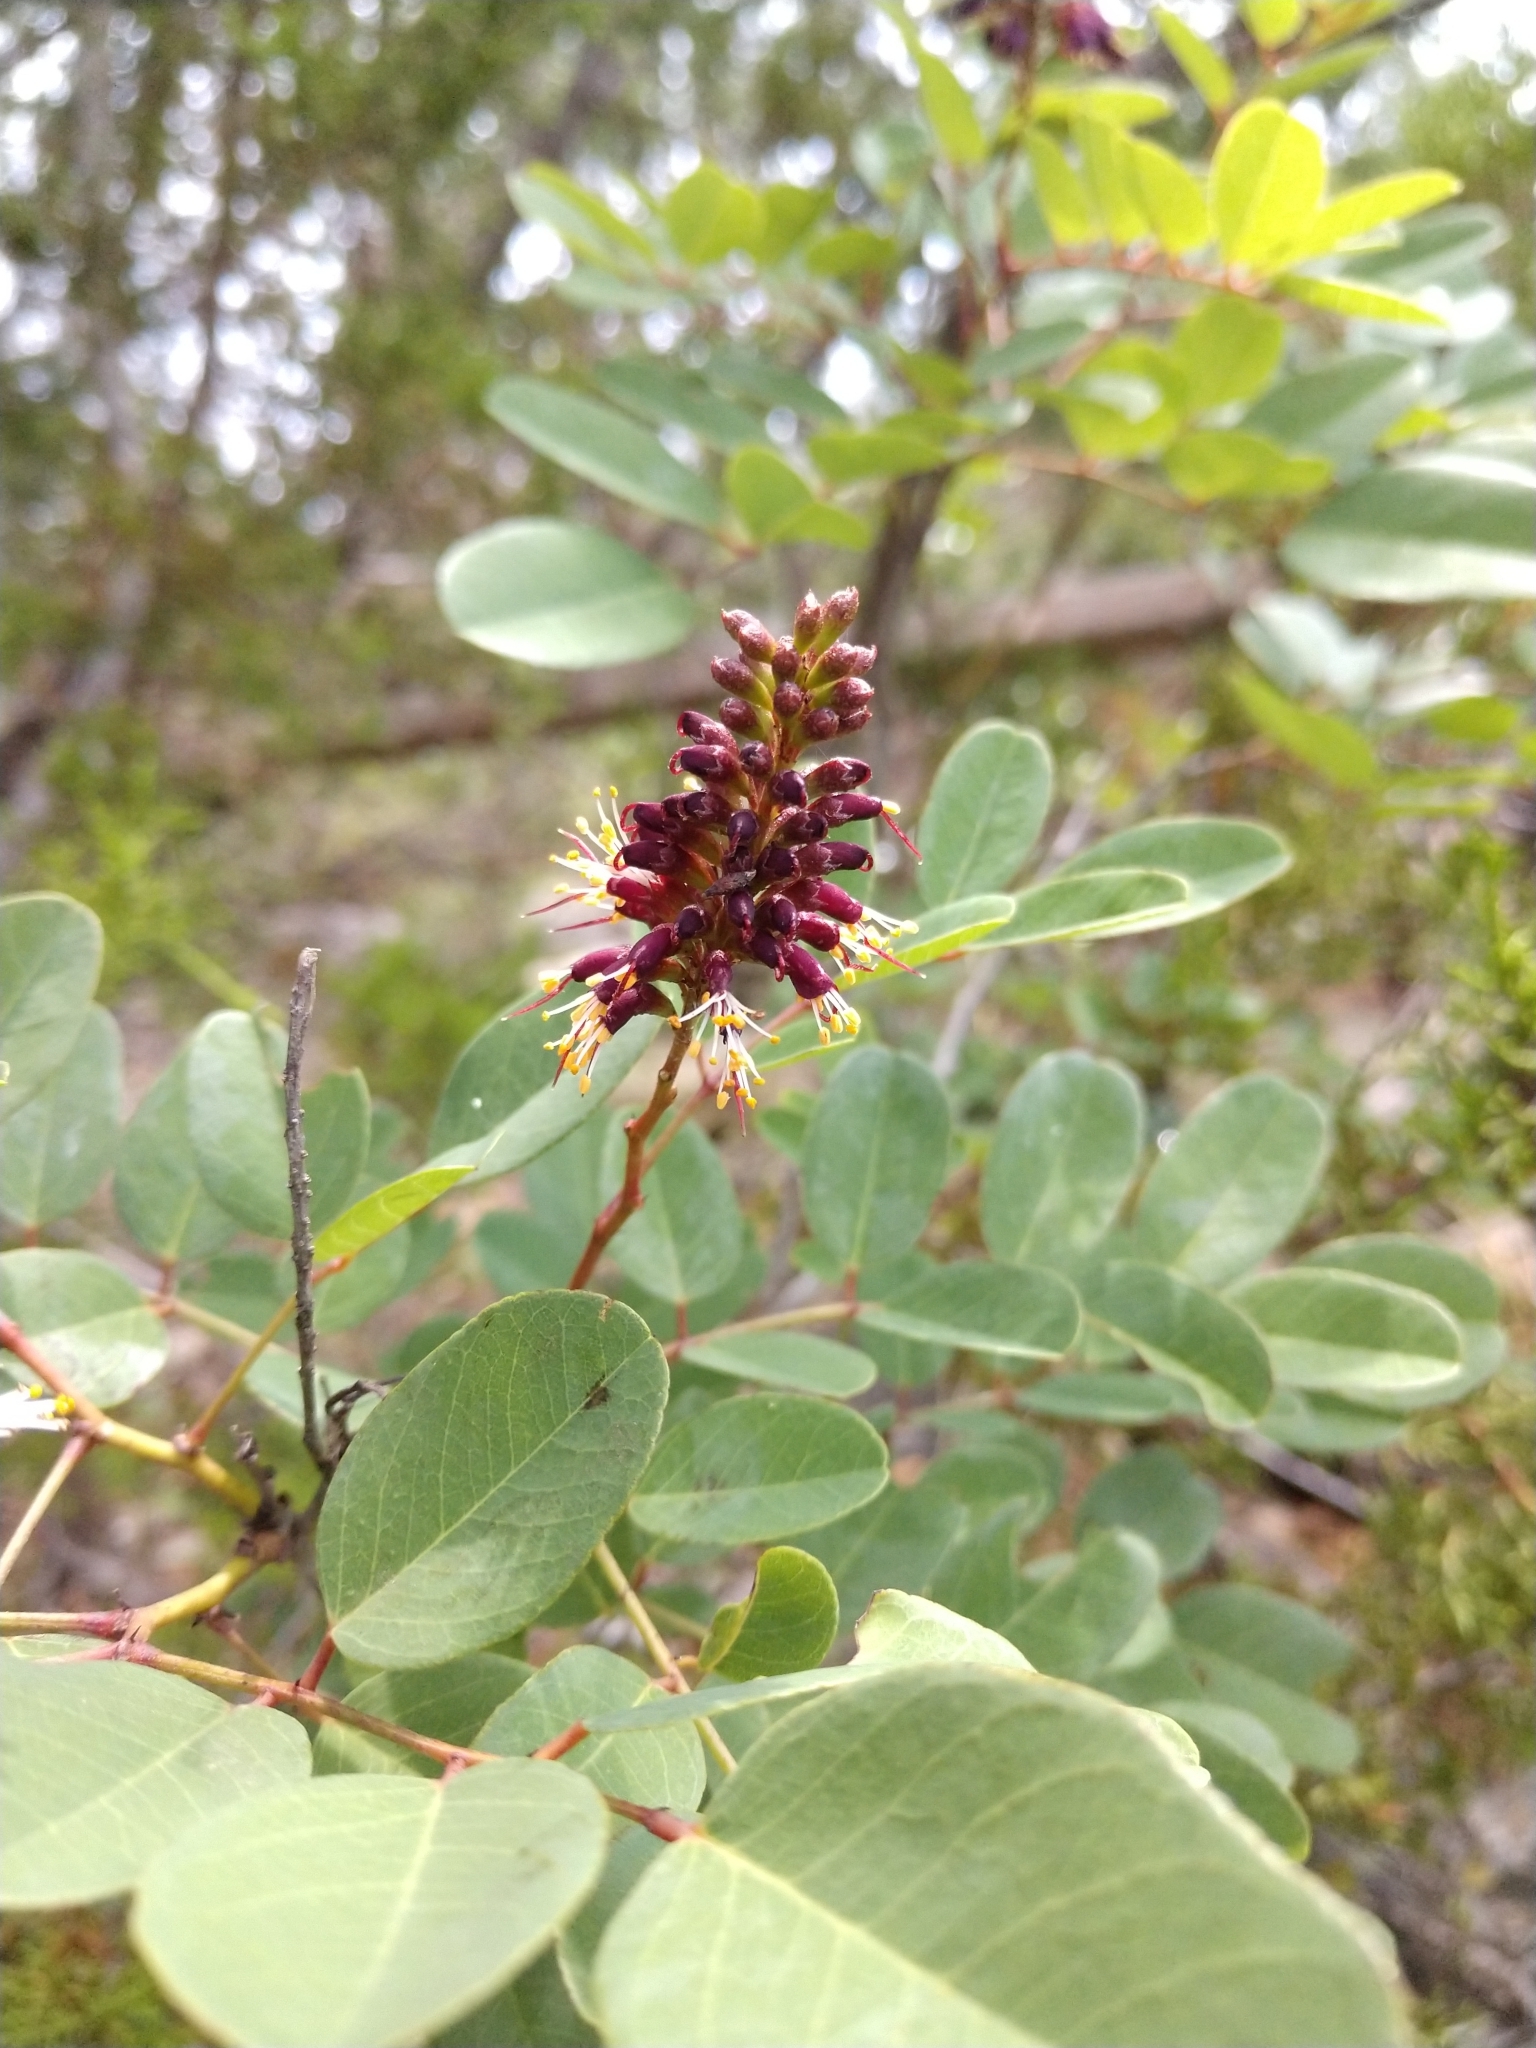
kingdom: Plantae
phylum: Tracheophyta
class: Magnoliopsida
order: Fabales
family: Fabaceae
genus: Amorpha
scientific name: Amorpha roemeriana
